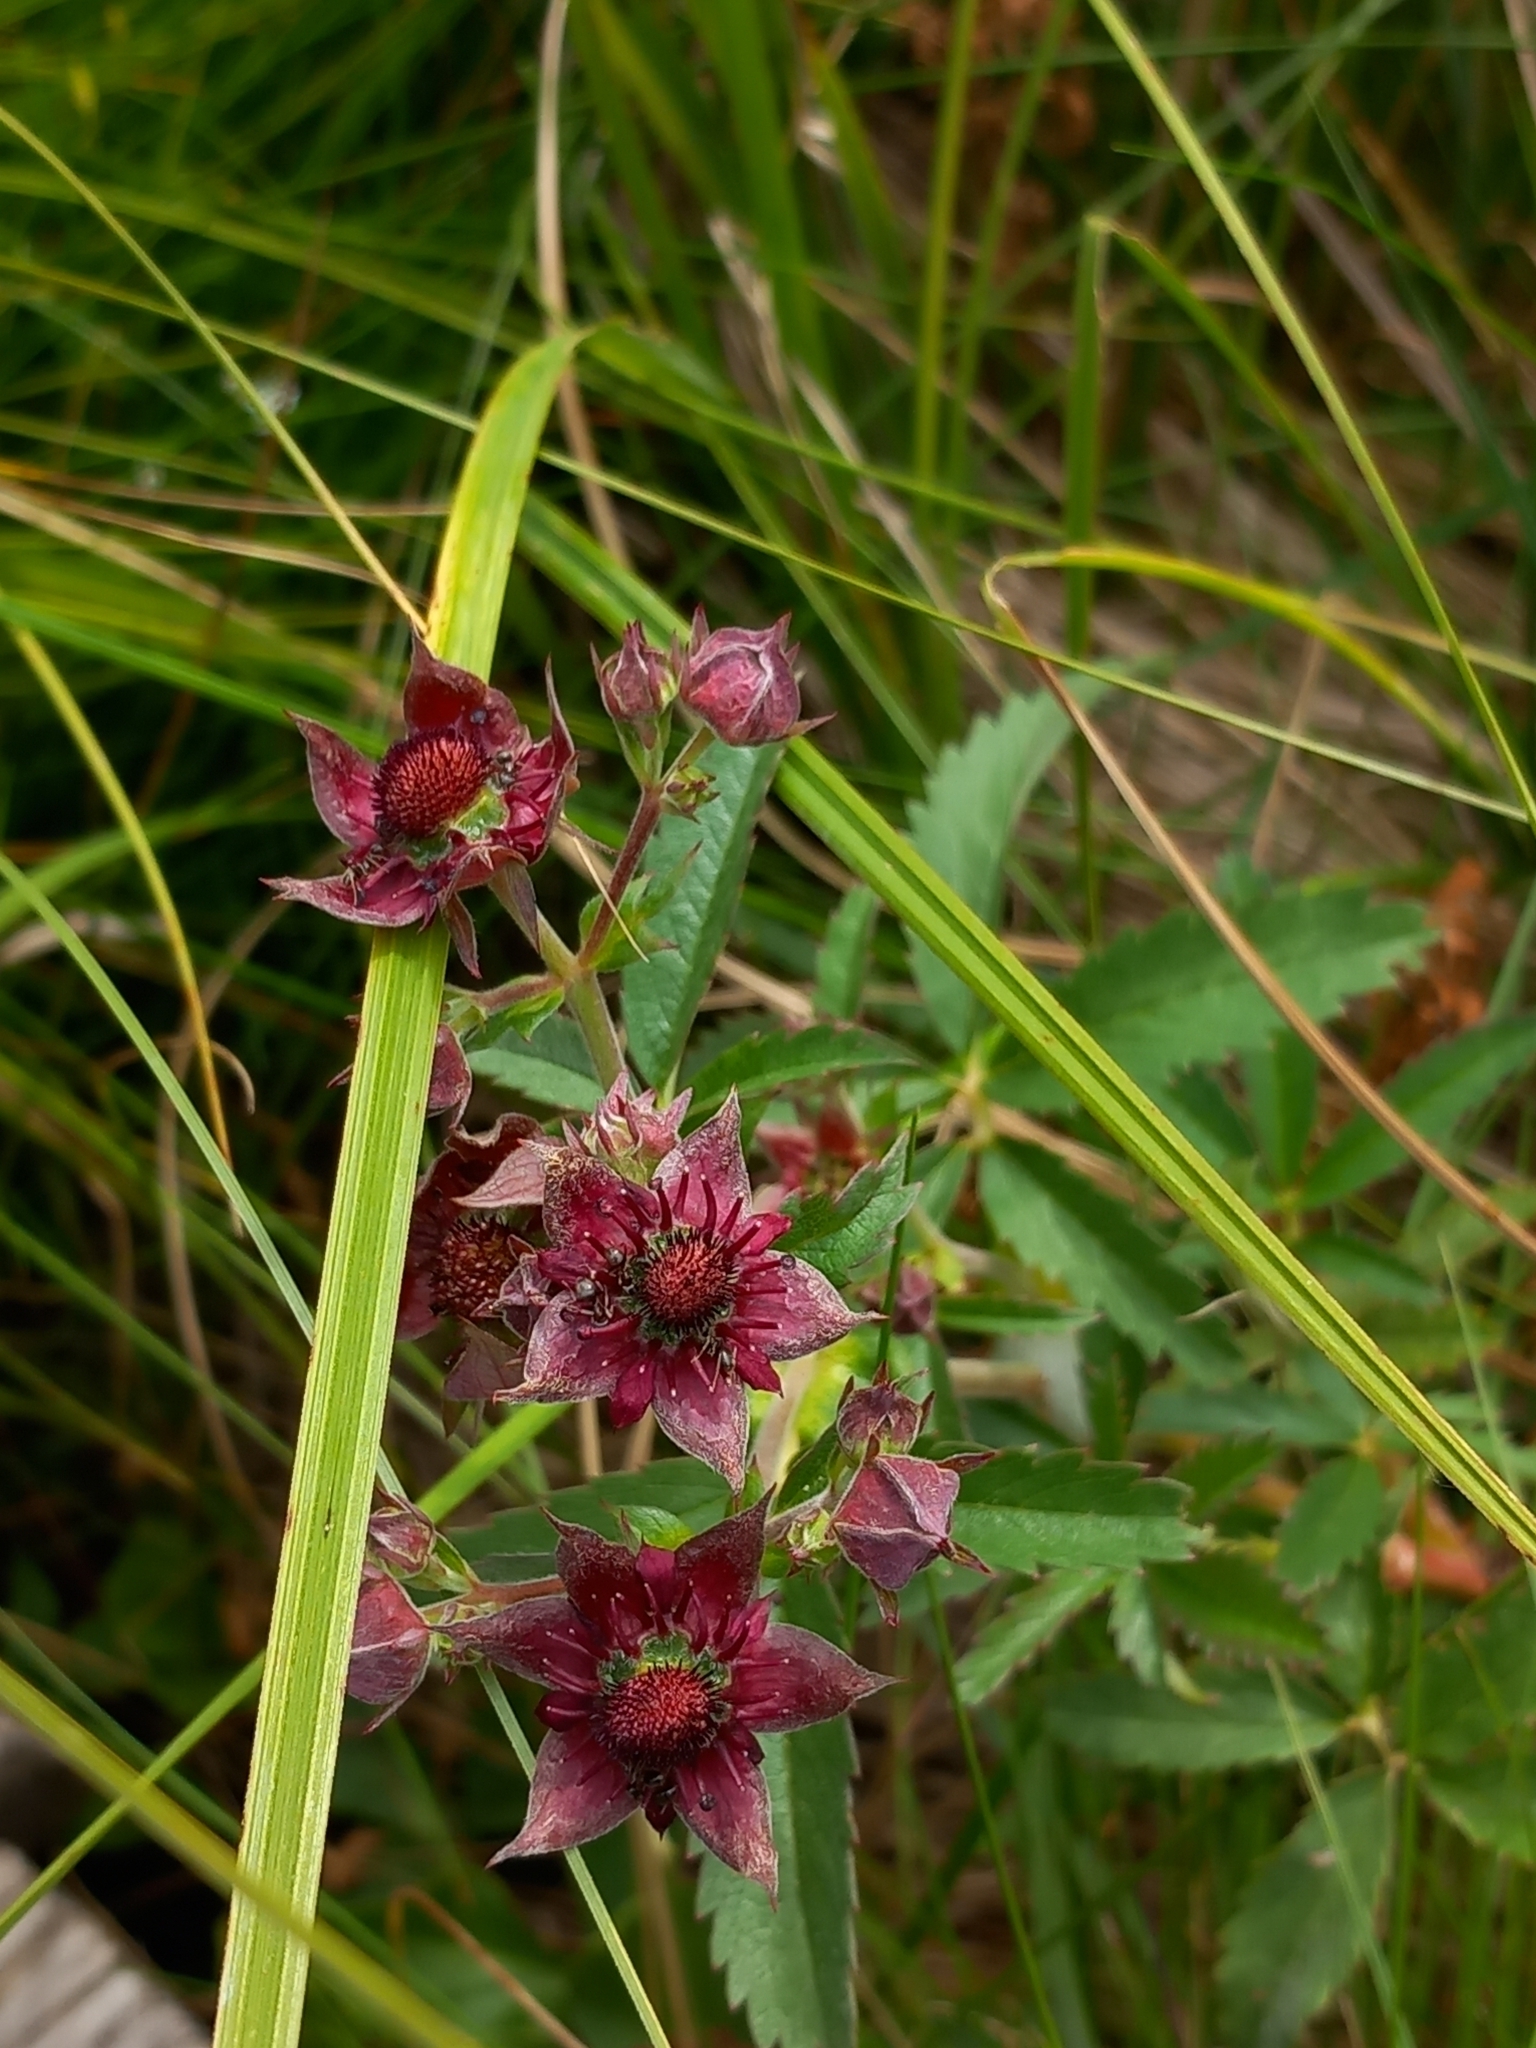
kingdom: Plantae
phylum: Tracheophyta
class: Magnoliopsida
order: Rosales
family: Rosaceae
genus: Comarum
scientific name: Comarum palustre
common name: Marsh cinquefoil
